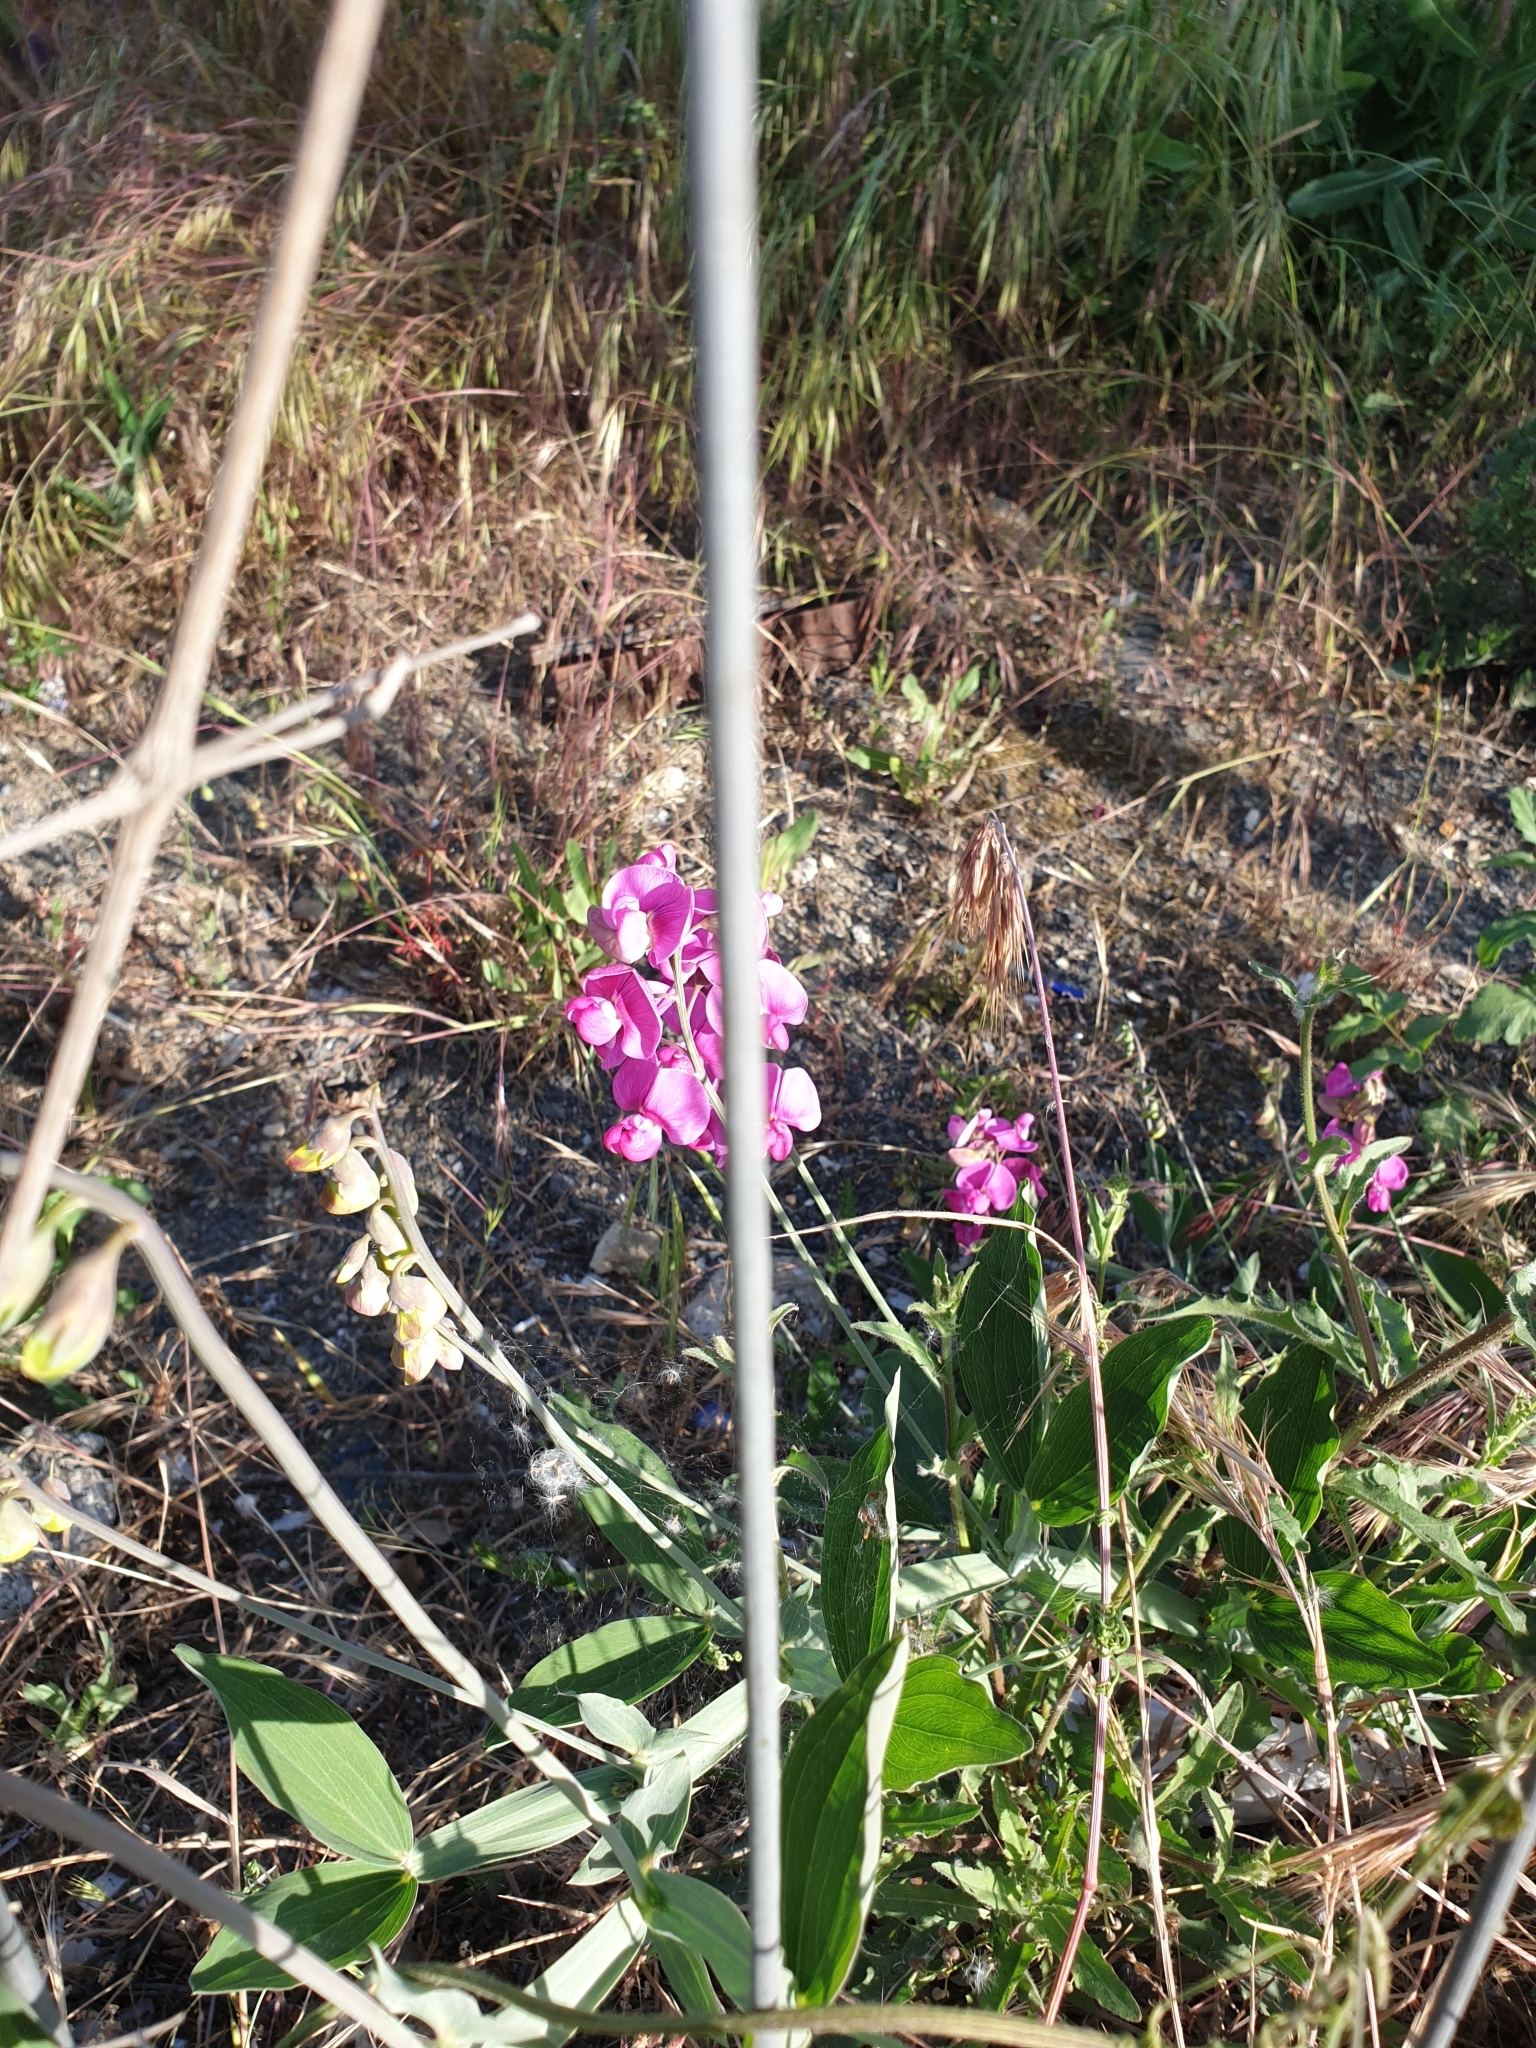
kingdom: Plantae
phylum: Tracheophyta
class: Magnoliopsida
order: Fabales
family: Fabaceae
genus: Lathyrus
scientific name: Lathyrus latifolius
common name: Perennial pea
